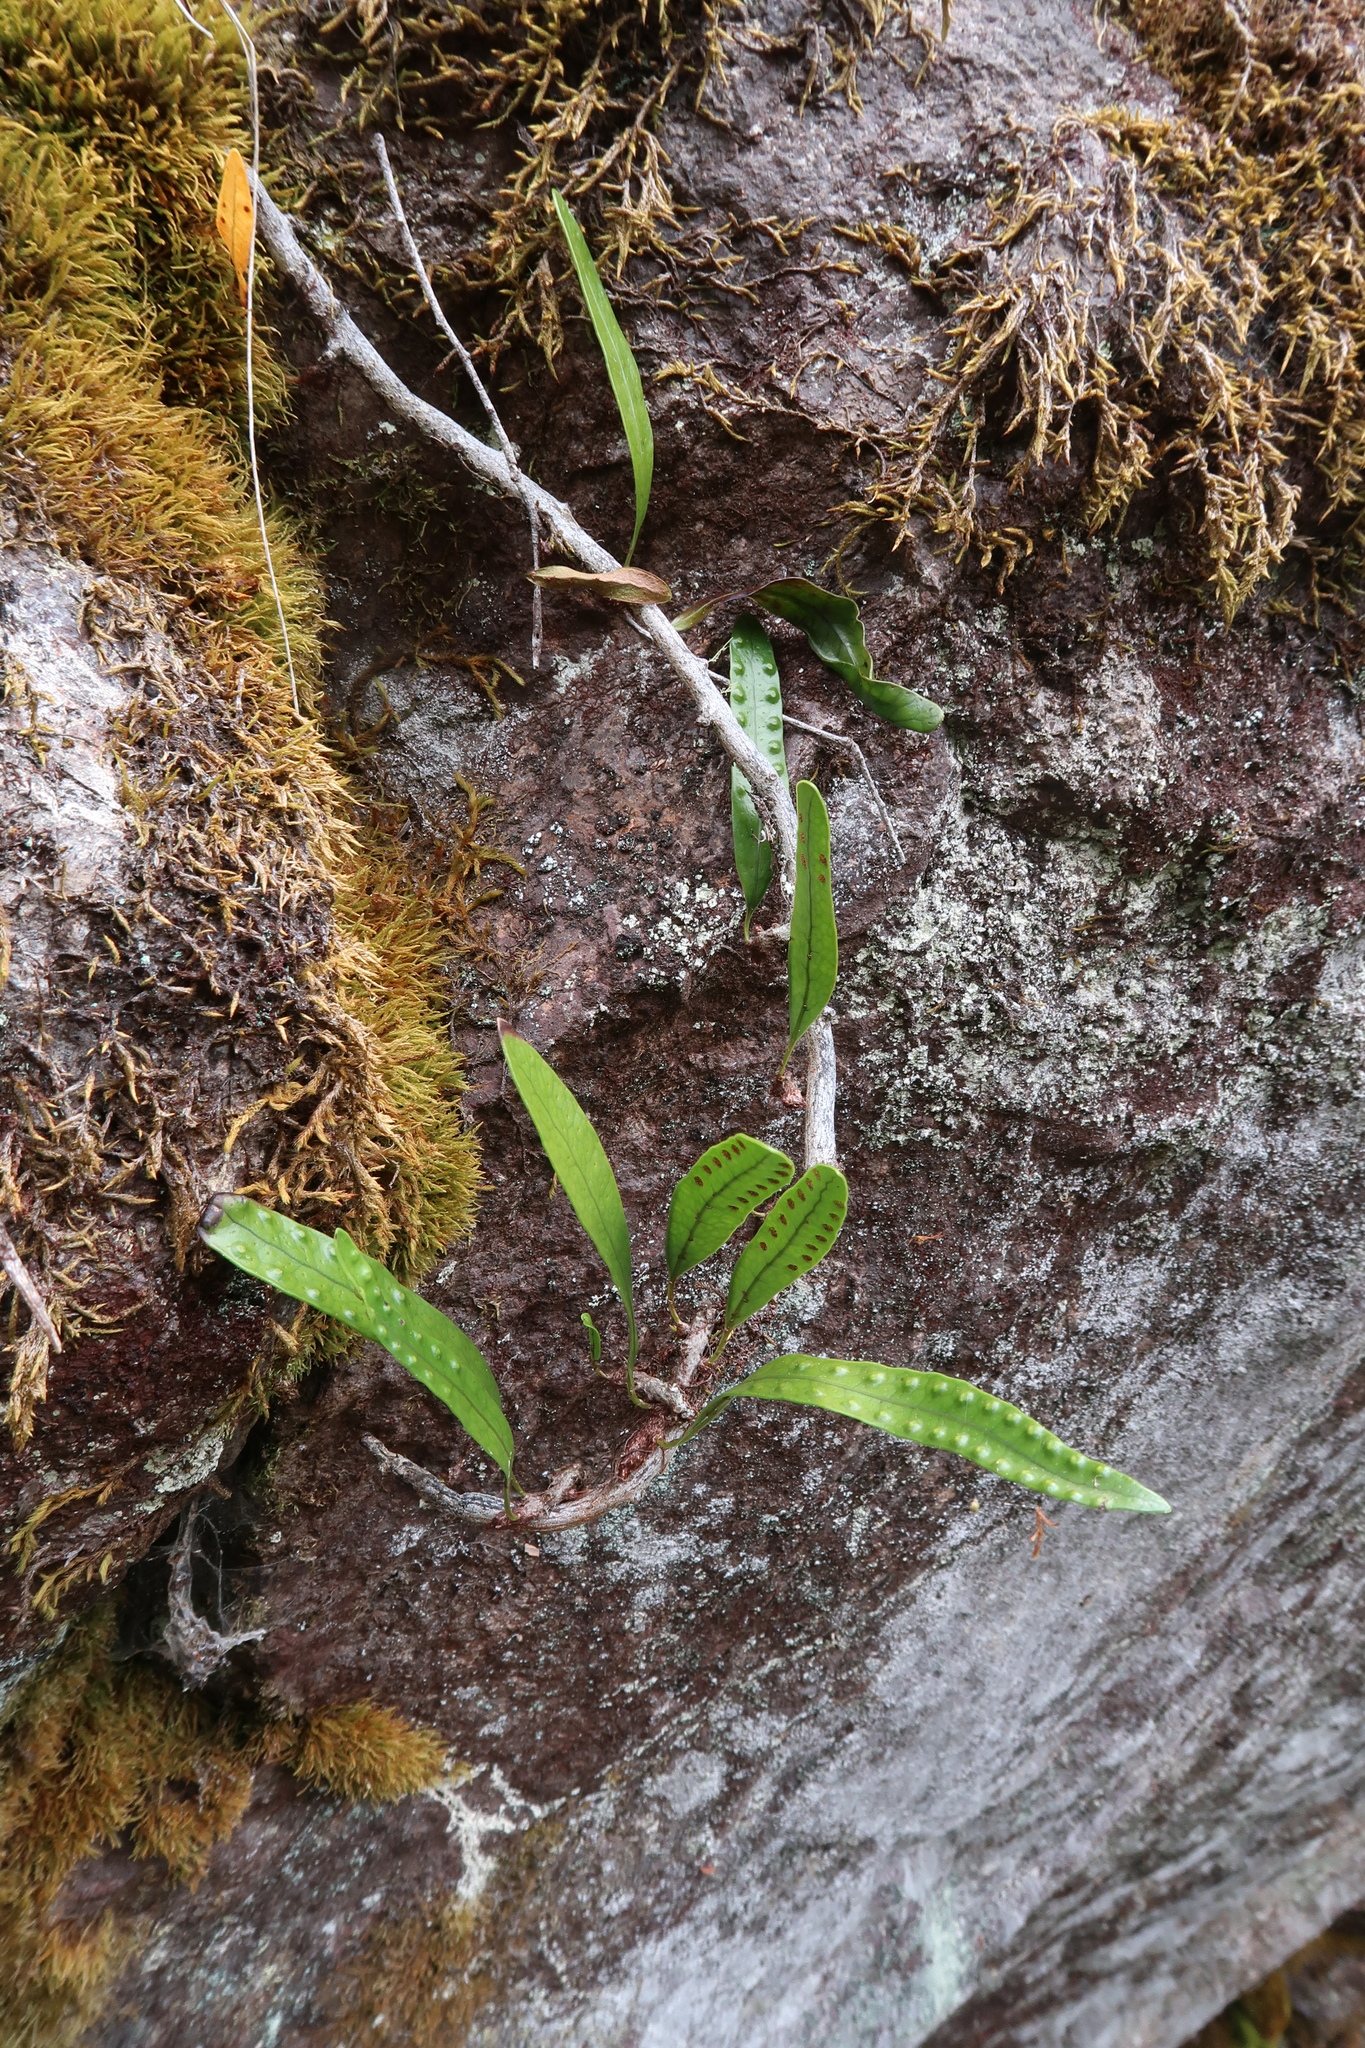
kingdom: Plantae
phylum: Tracheophyta
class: Polypodiopsida
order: Polypodiales
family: Polypodiaceae
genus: Lecanopteris
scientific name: Lecanopteris pustulata
